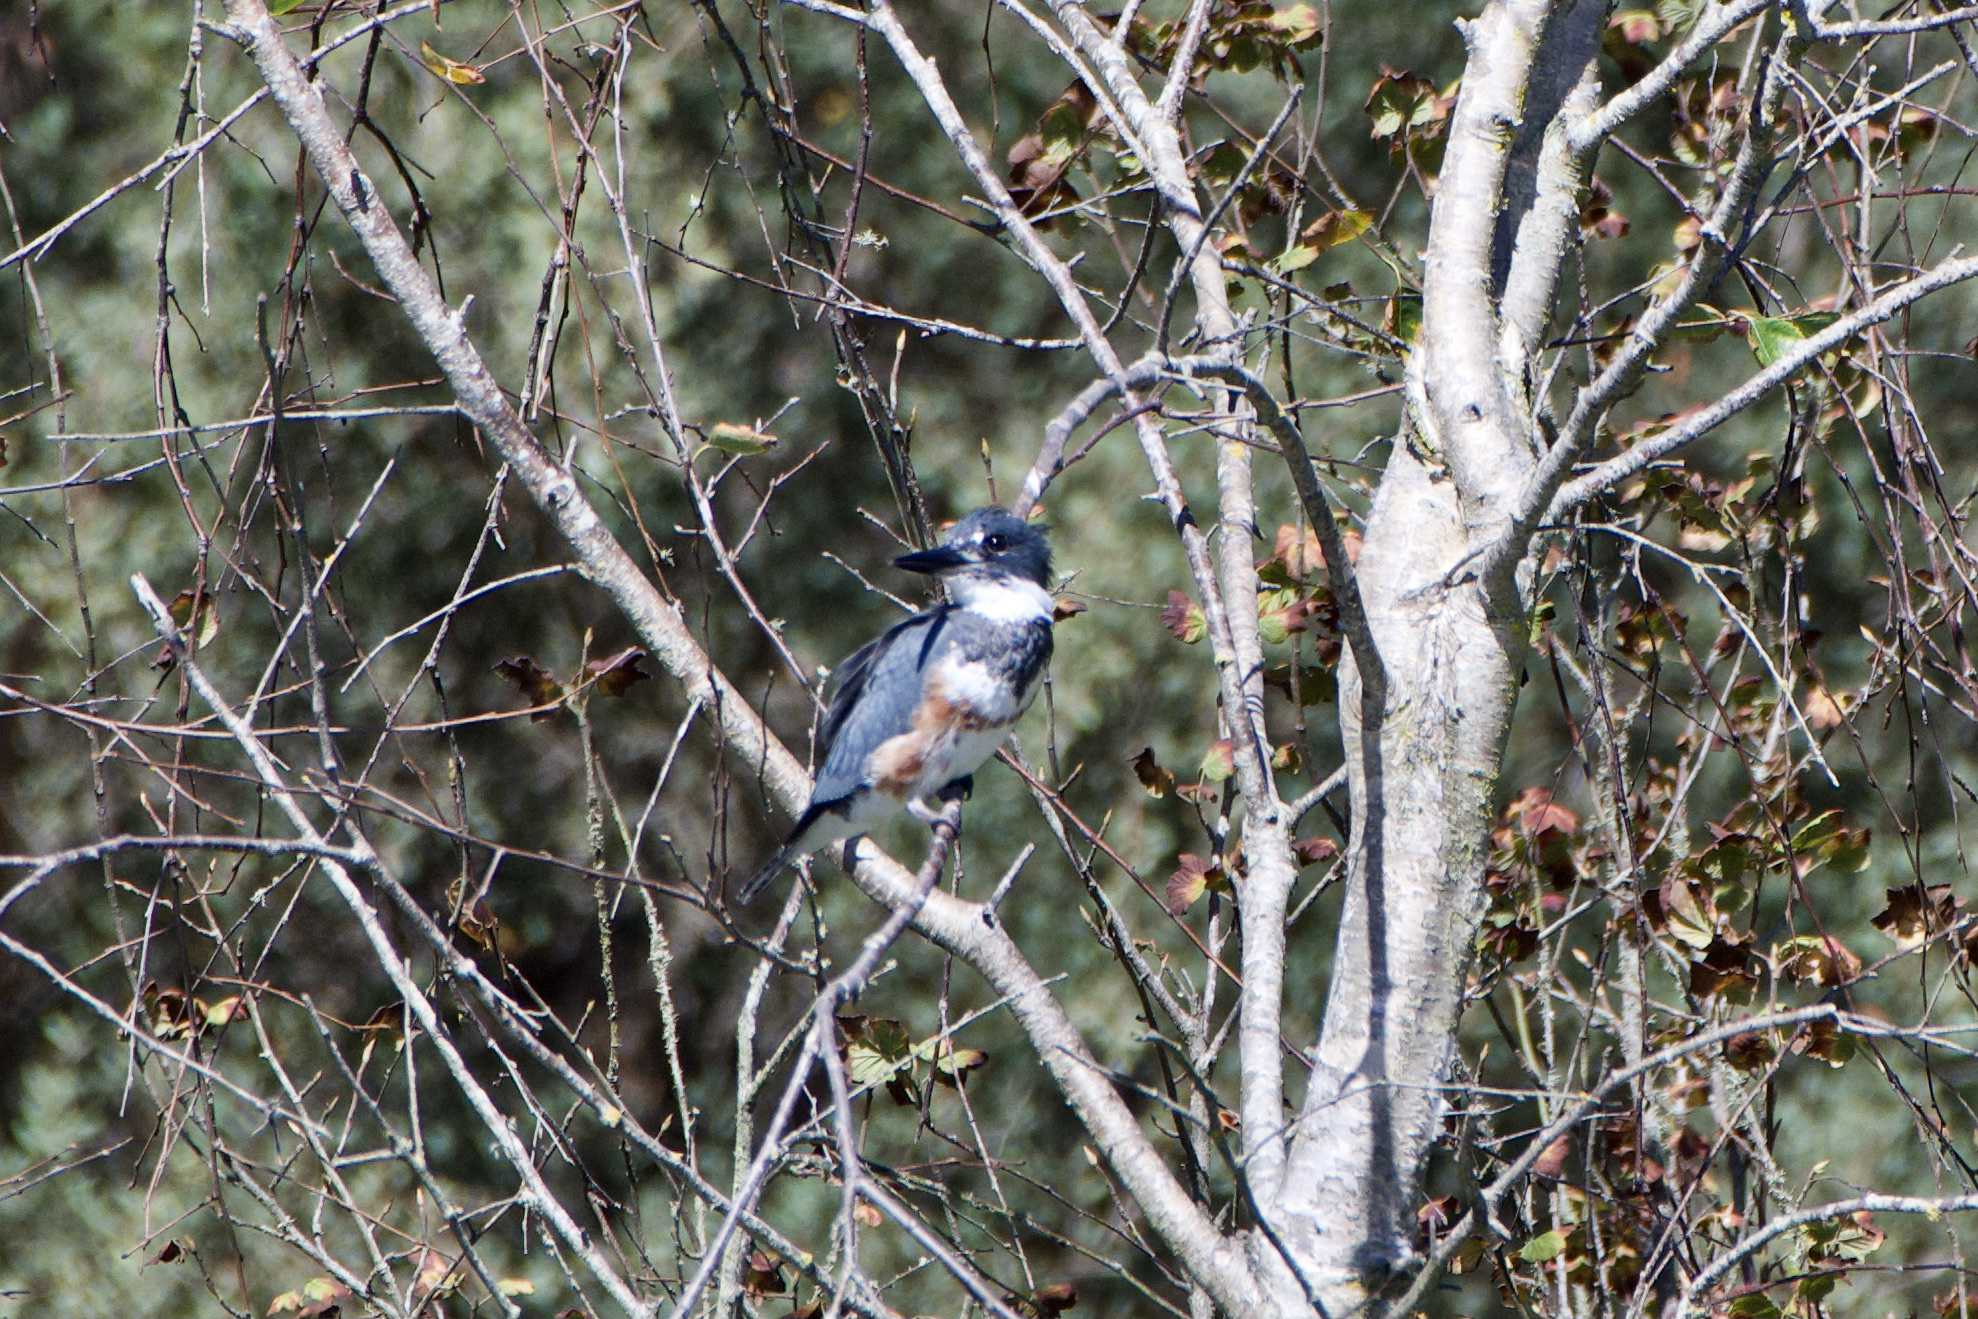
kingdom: Animalia
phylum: Chordata
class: Aves
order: Coraciiformes
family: Alcedinidae
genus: Megaceryle
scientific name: Megaceryle alcyon
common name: Belted kingfisher
